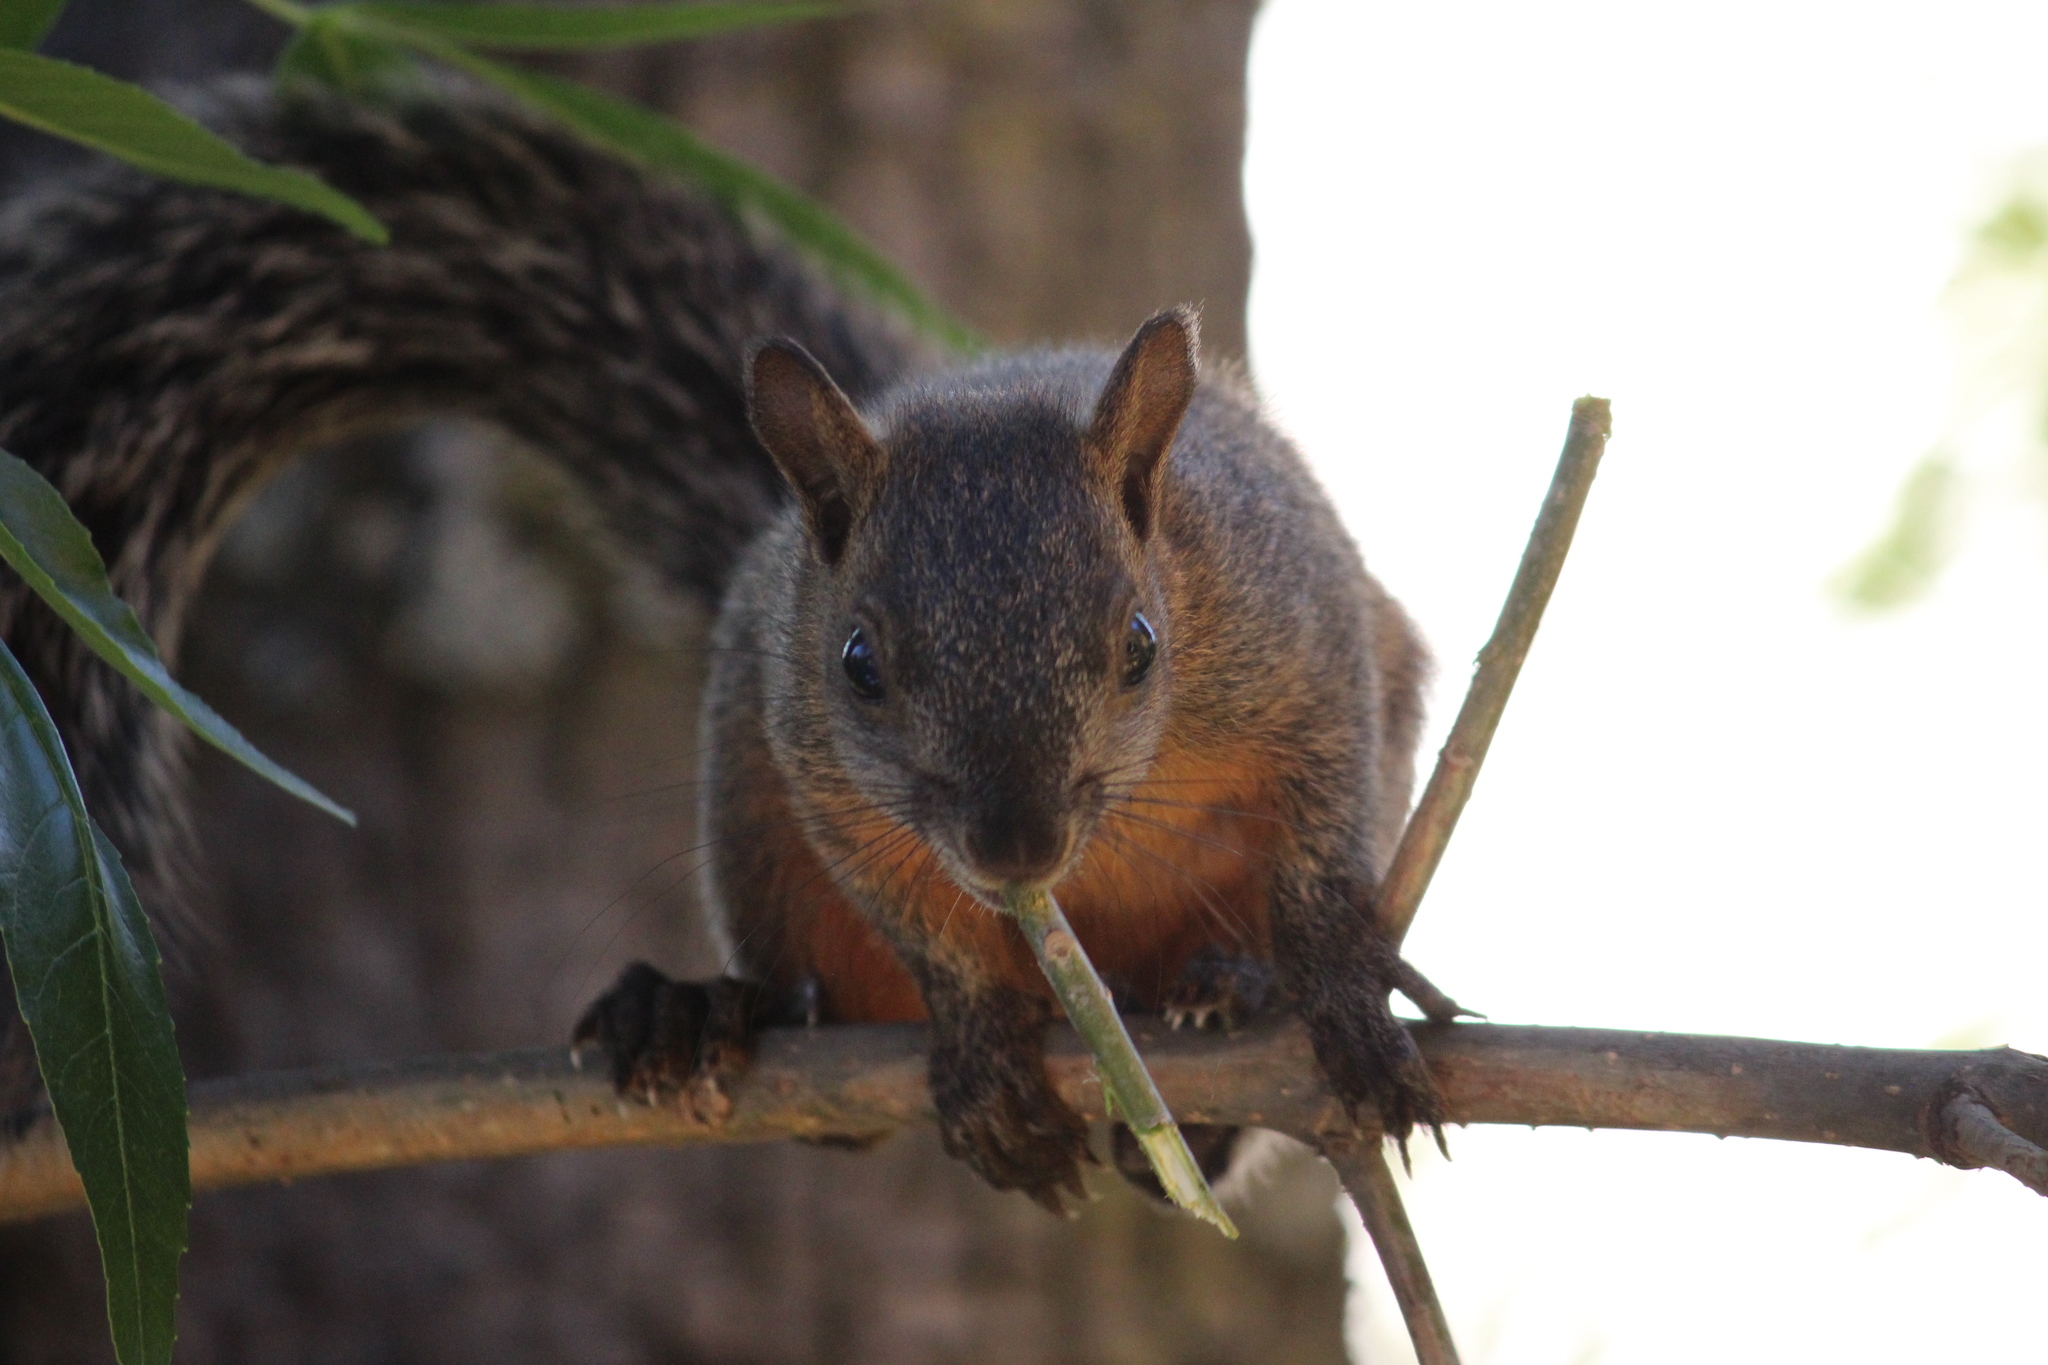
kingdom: Animalia
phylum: Chordata
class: Mammalia
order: Rodentia
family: Sciuridae
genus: Sciurus
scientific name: Sciurus aureogaster
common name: Red-bellied squirrel
